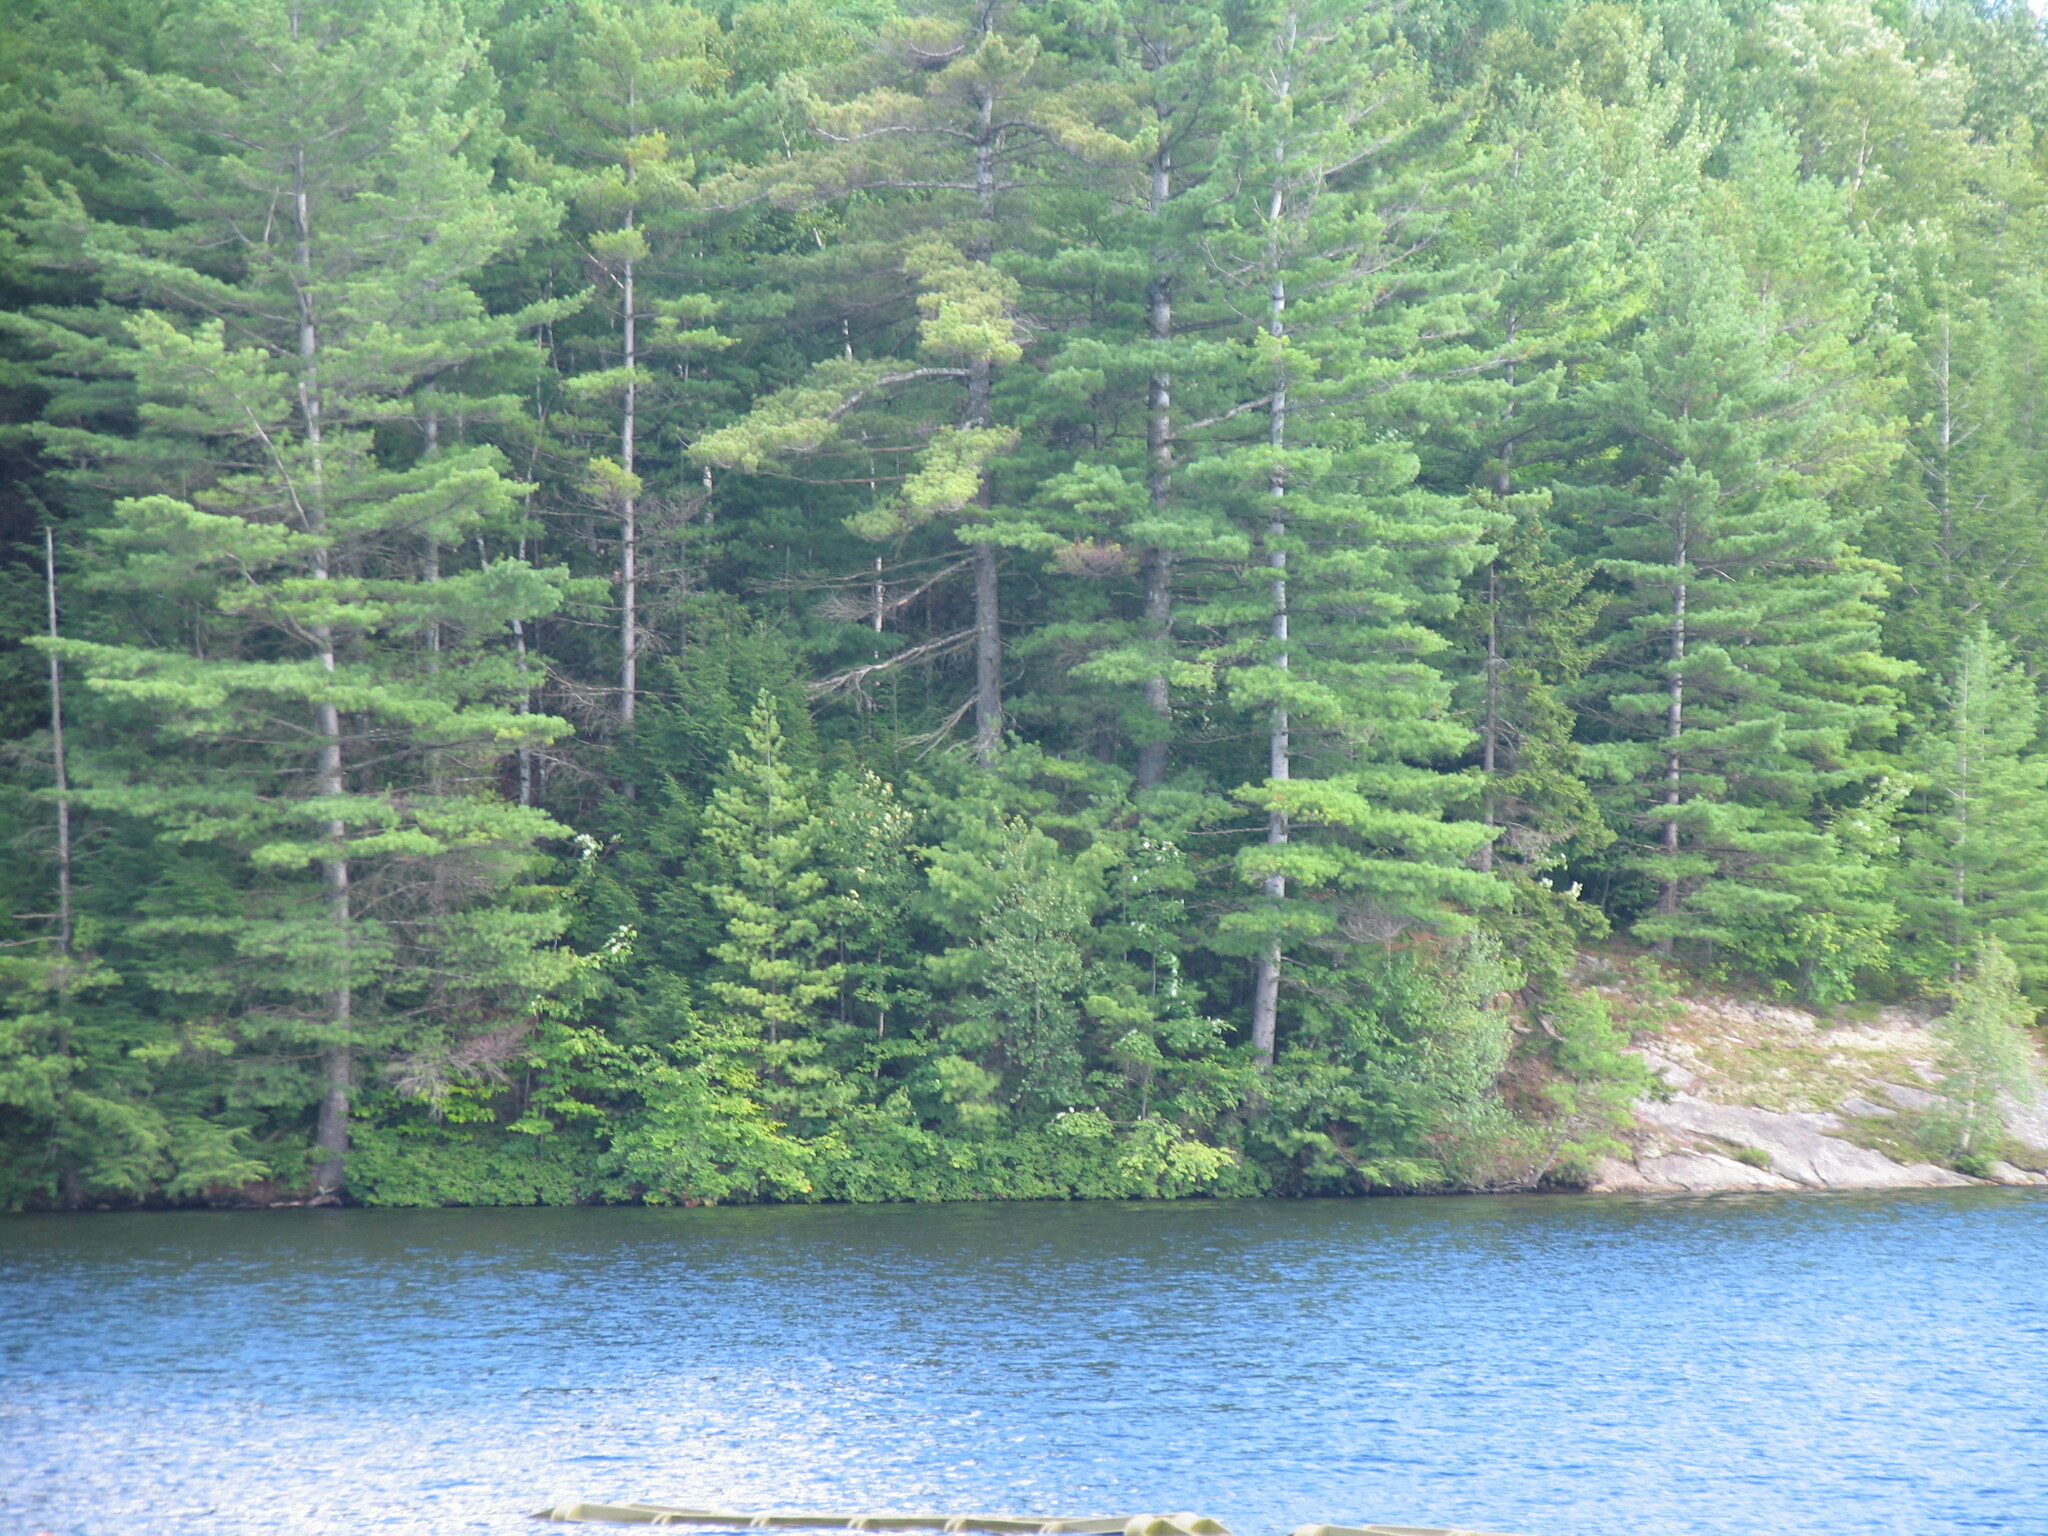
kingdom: Plantae
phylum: Tracheophyta
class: Pinopsida
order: Pinales
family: Pinaceae
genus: Pinus
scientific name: Pinus strobus
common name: Weymouth pine
